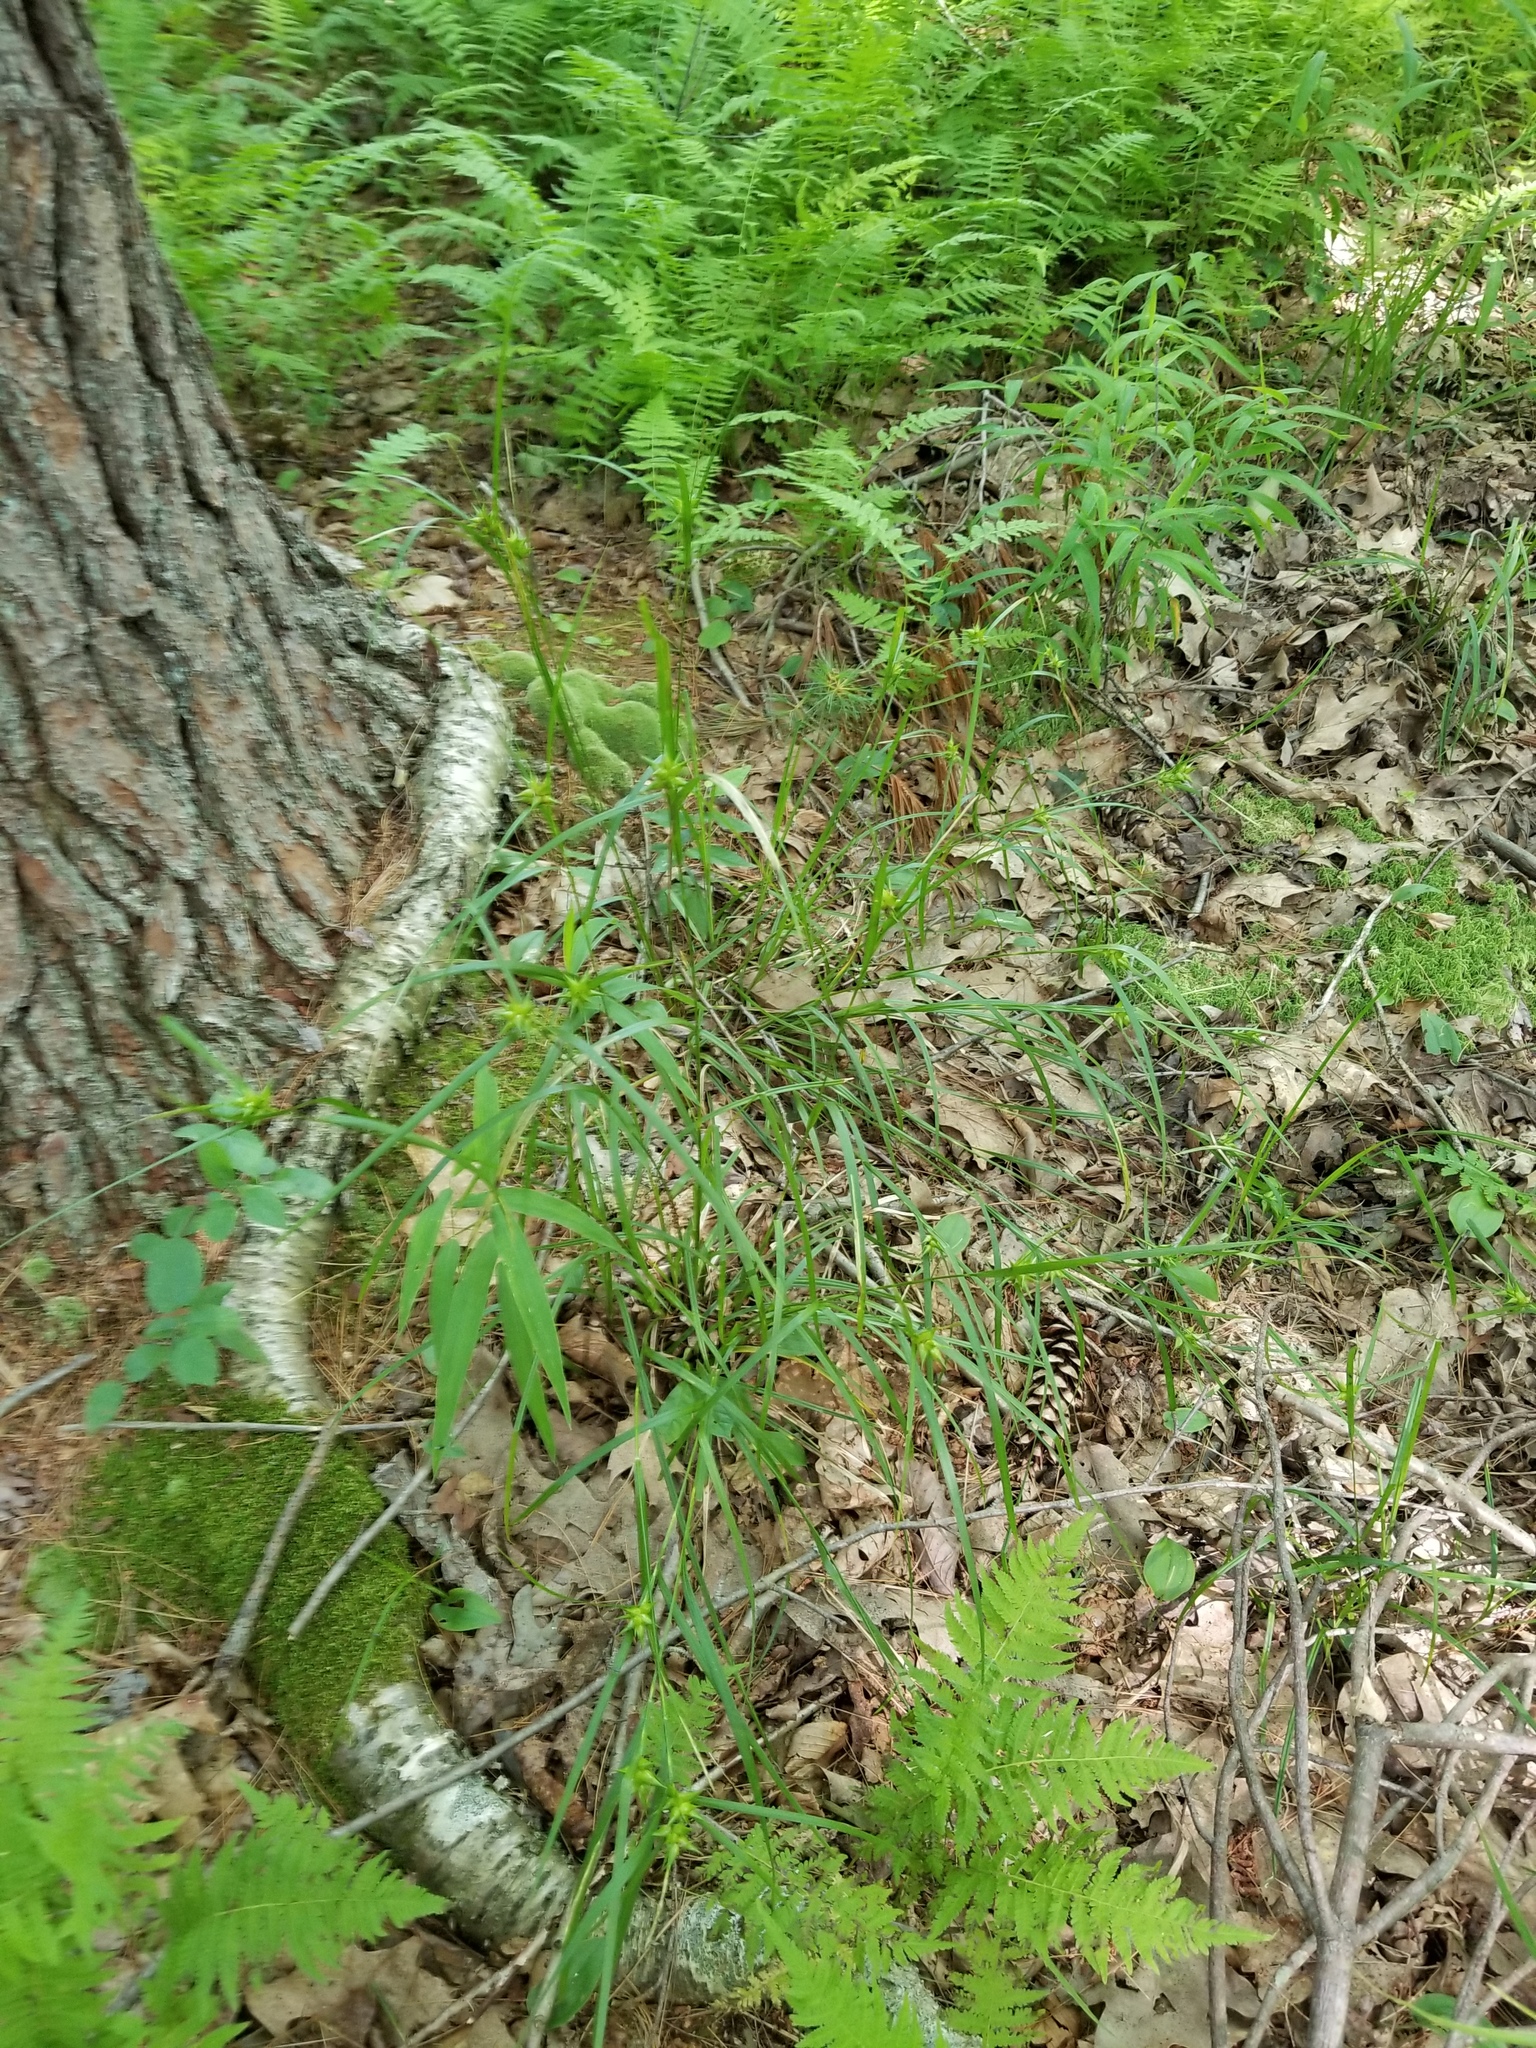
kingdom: Plantae
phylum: Tracheophyta
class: Liliopsida
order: Poales
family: Cyperaceae
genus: Carex
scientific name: Carex intumescens
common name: Greater bladder sedge
